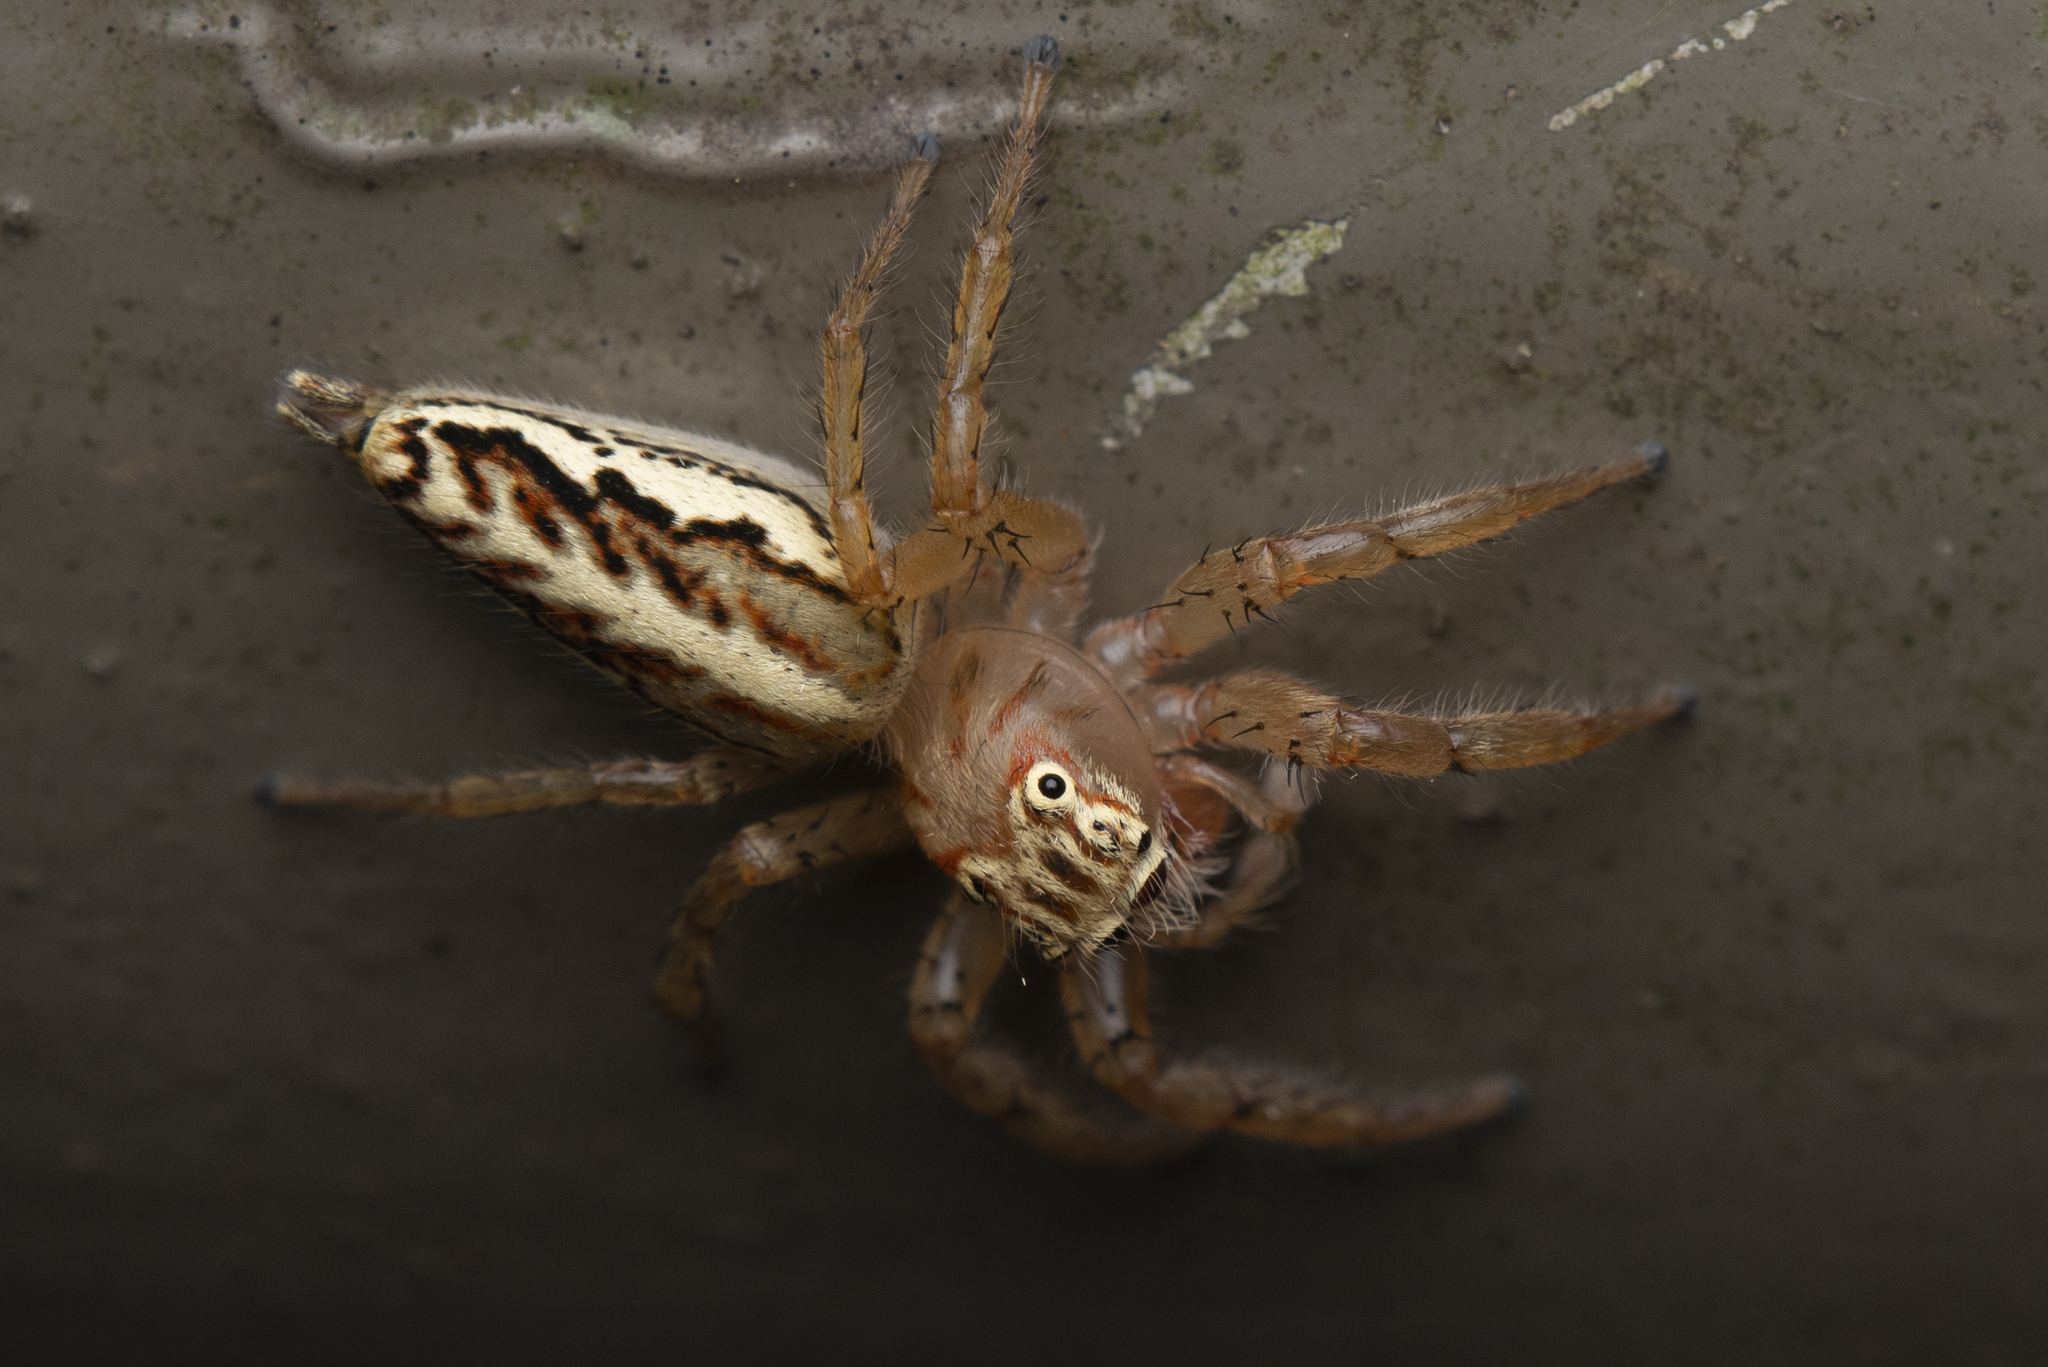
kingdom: Animalia
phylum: Arthropoda
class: Arachnida
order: Araneae
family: Salticidae
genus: Telamonia
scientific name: Telamonia caprina
